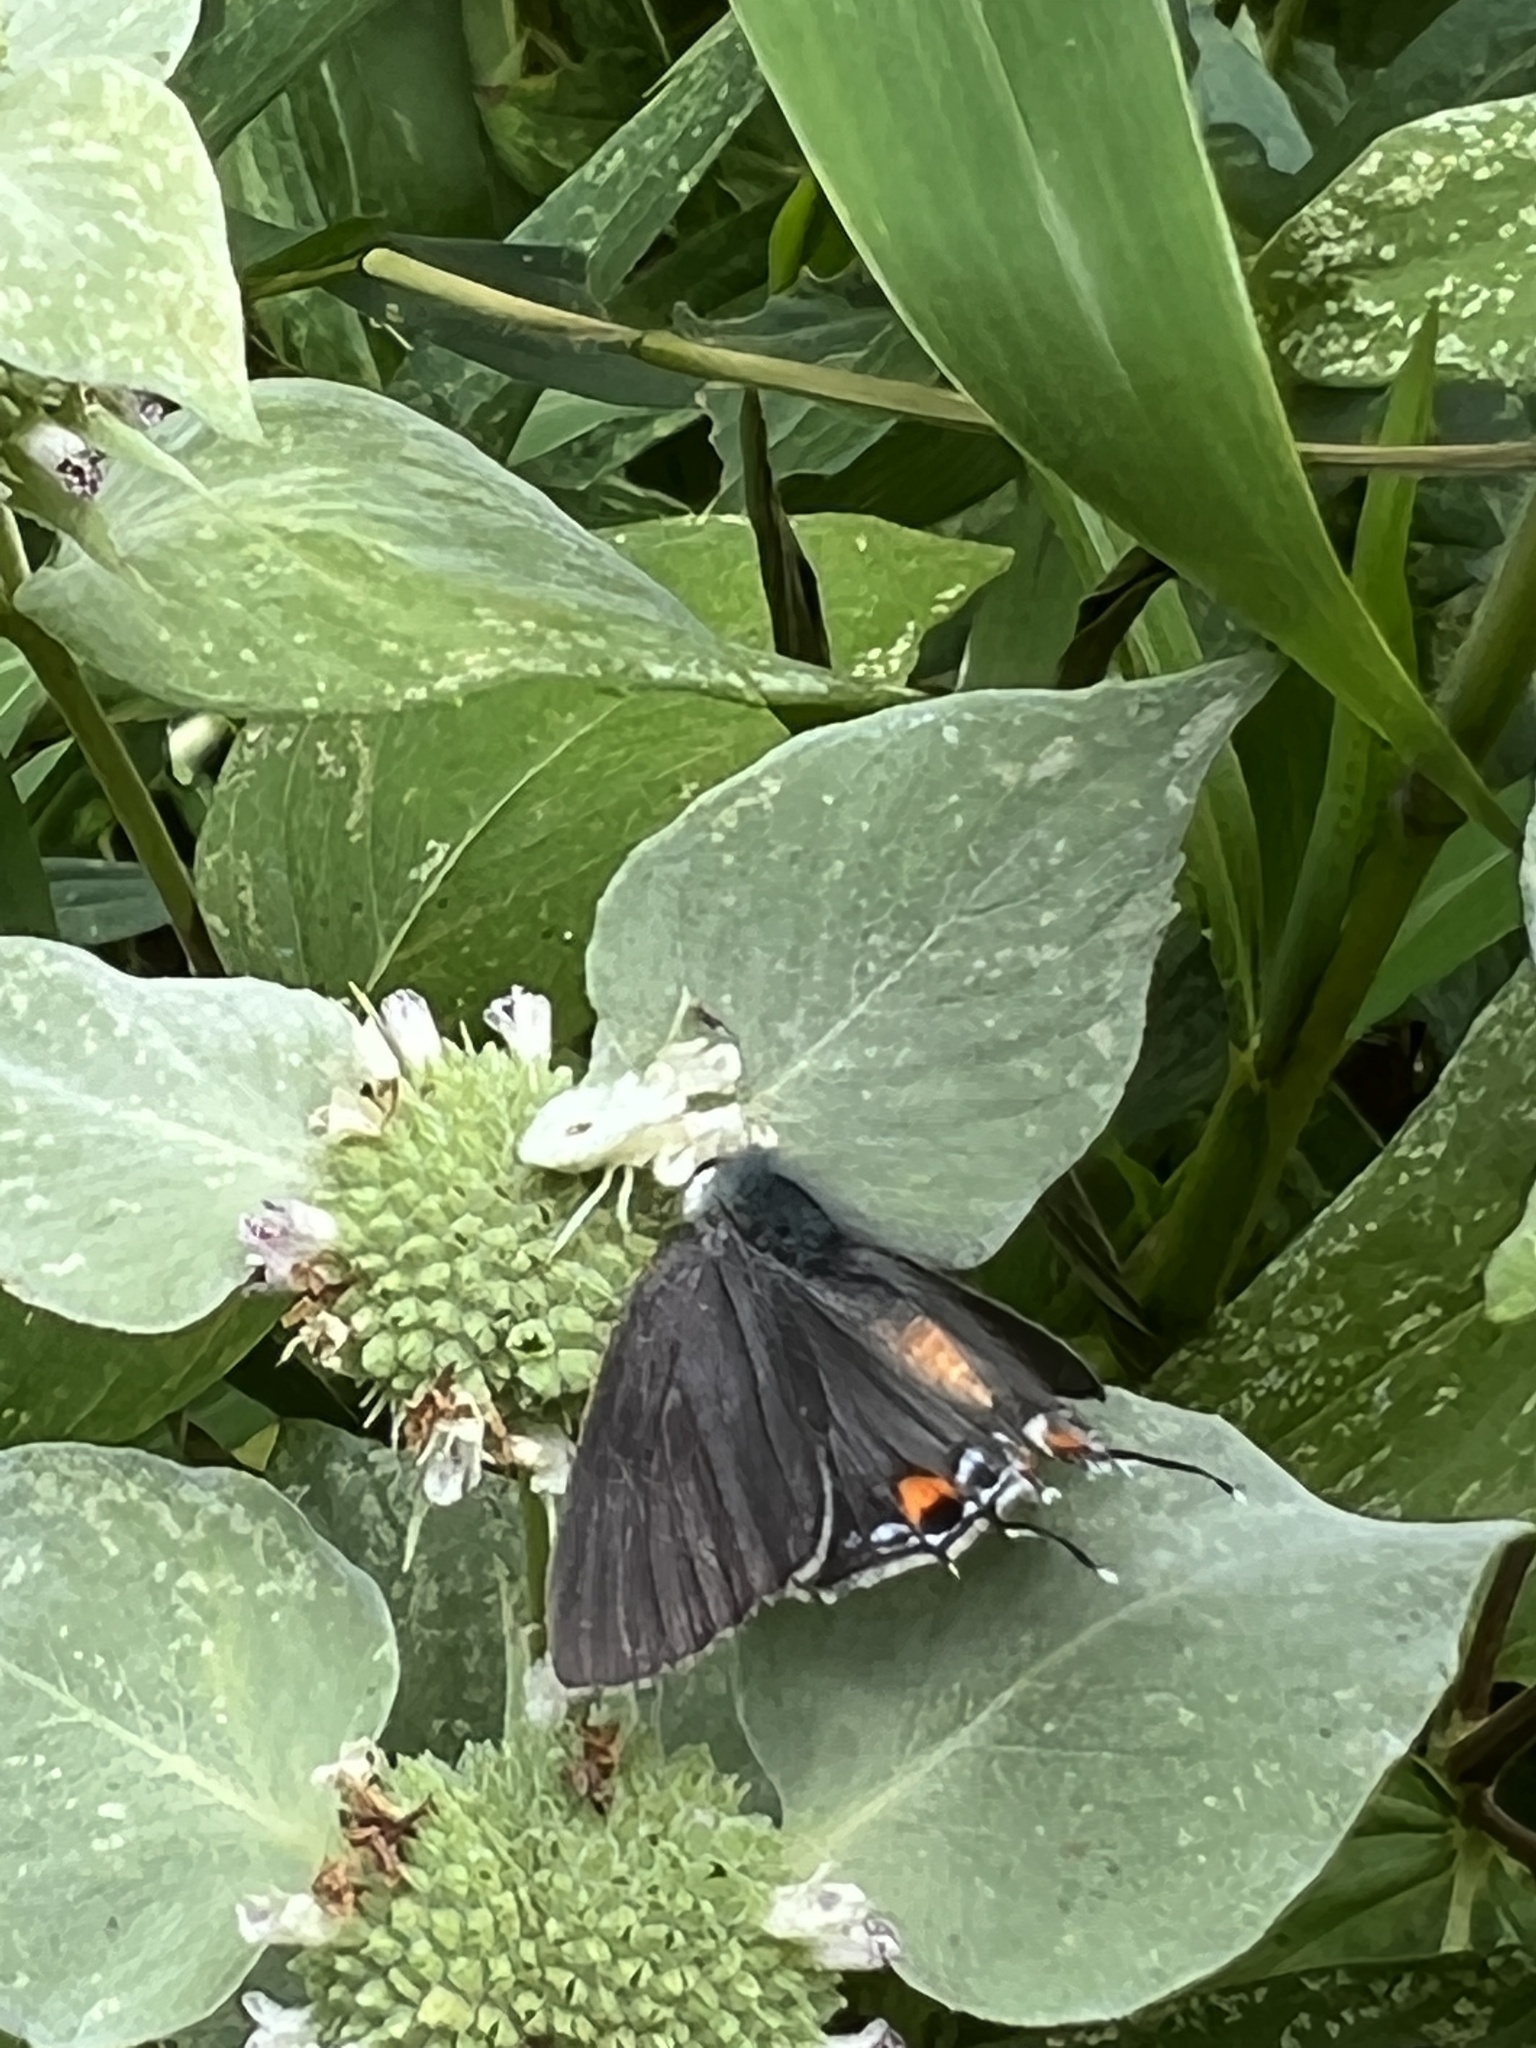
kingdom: Animalia
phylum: Arthropoda
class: Insecta
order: Lepidoptera
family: Lycaenidae
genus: Strymon
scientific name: Strymon melinus
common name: Gray hairstreak
